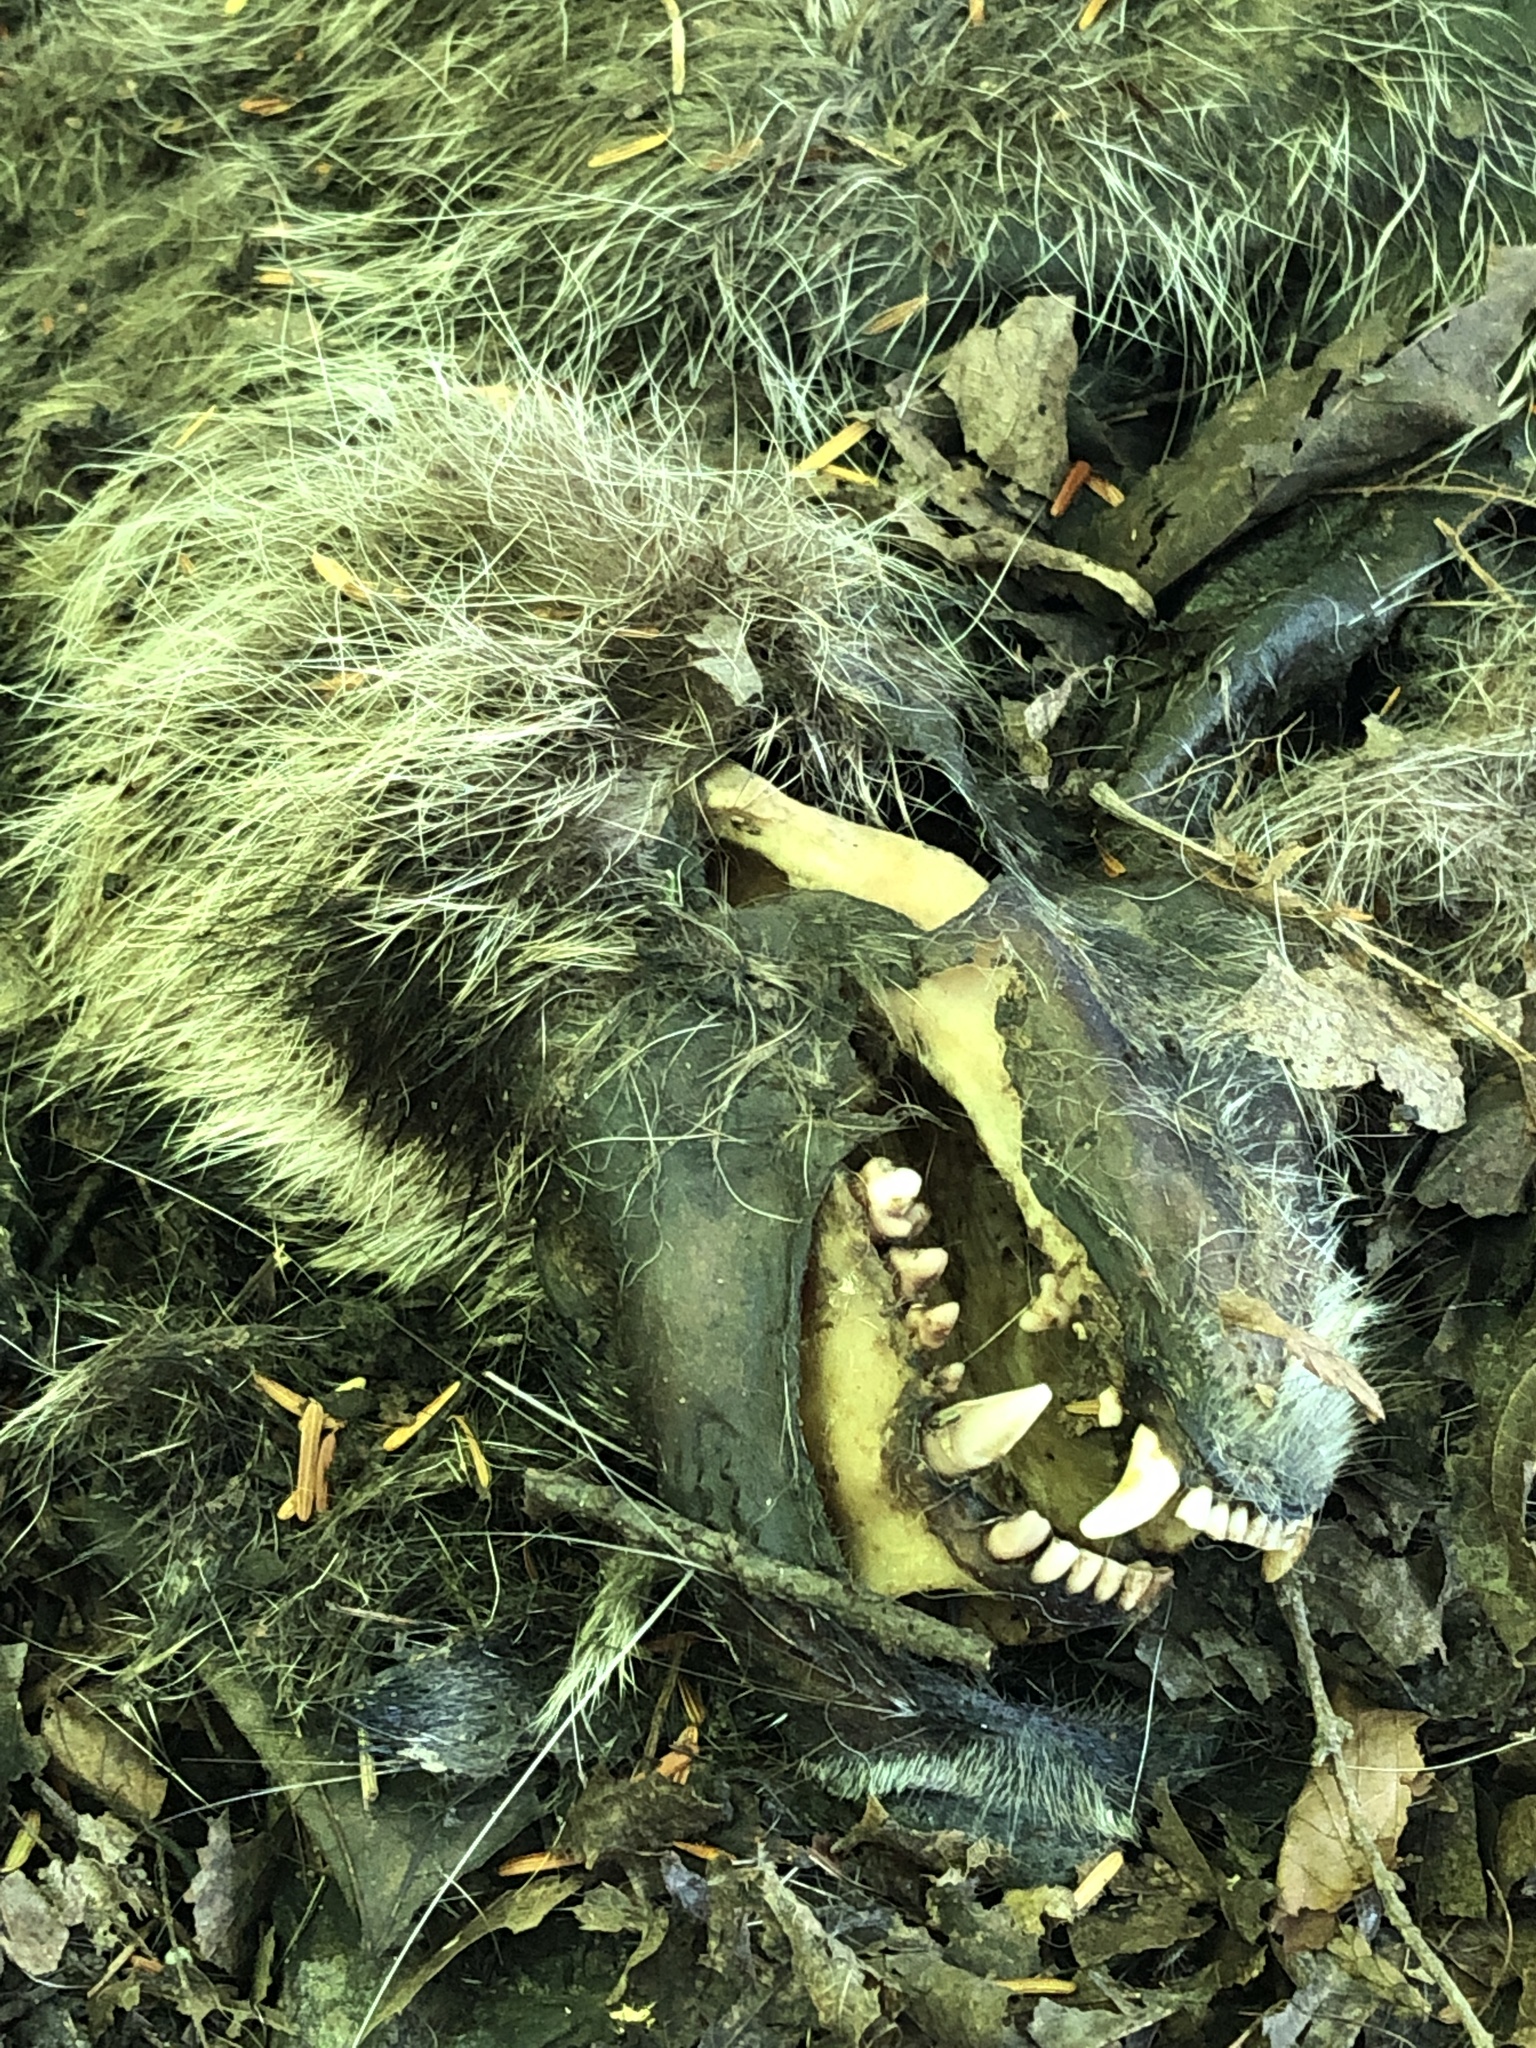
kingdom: Animalia
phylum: Chordata
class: Mammalia
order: Carnivora
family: Procyonidae
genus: Procyon
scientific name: Procyon lotor
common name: Raccoon
